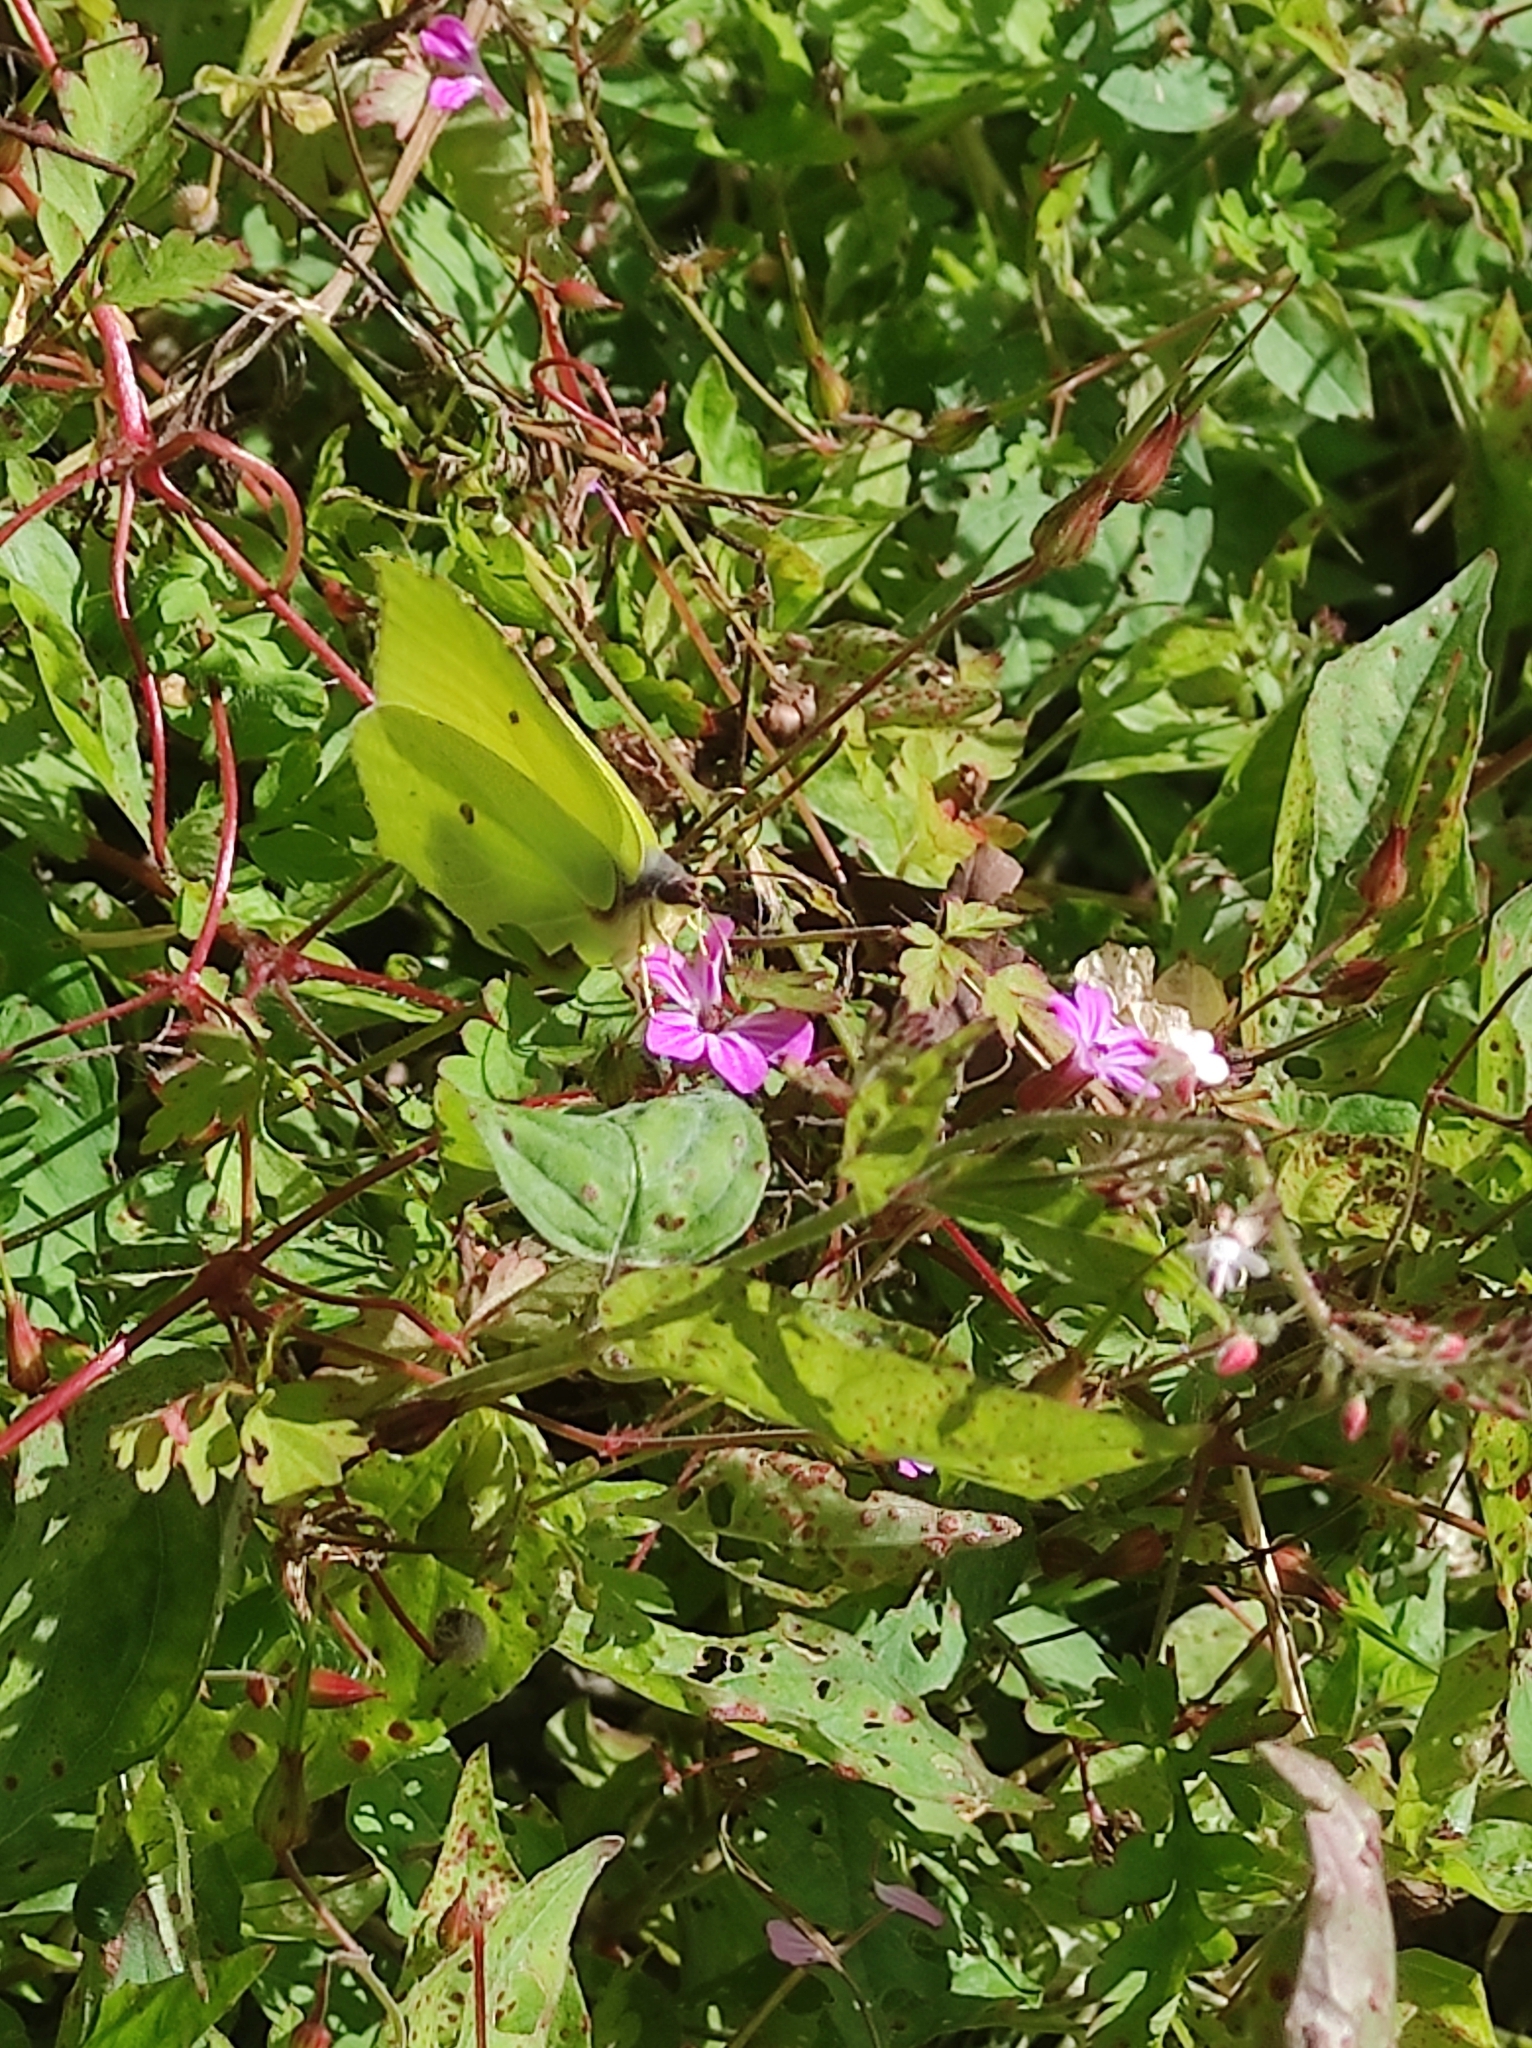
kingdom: Animalia
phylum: Arthropoda
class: Insecta
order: Lepidoptera
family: Pieridae
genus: Gonepteryx
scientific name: Gonepteryx rhamni
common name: Brimstone
